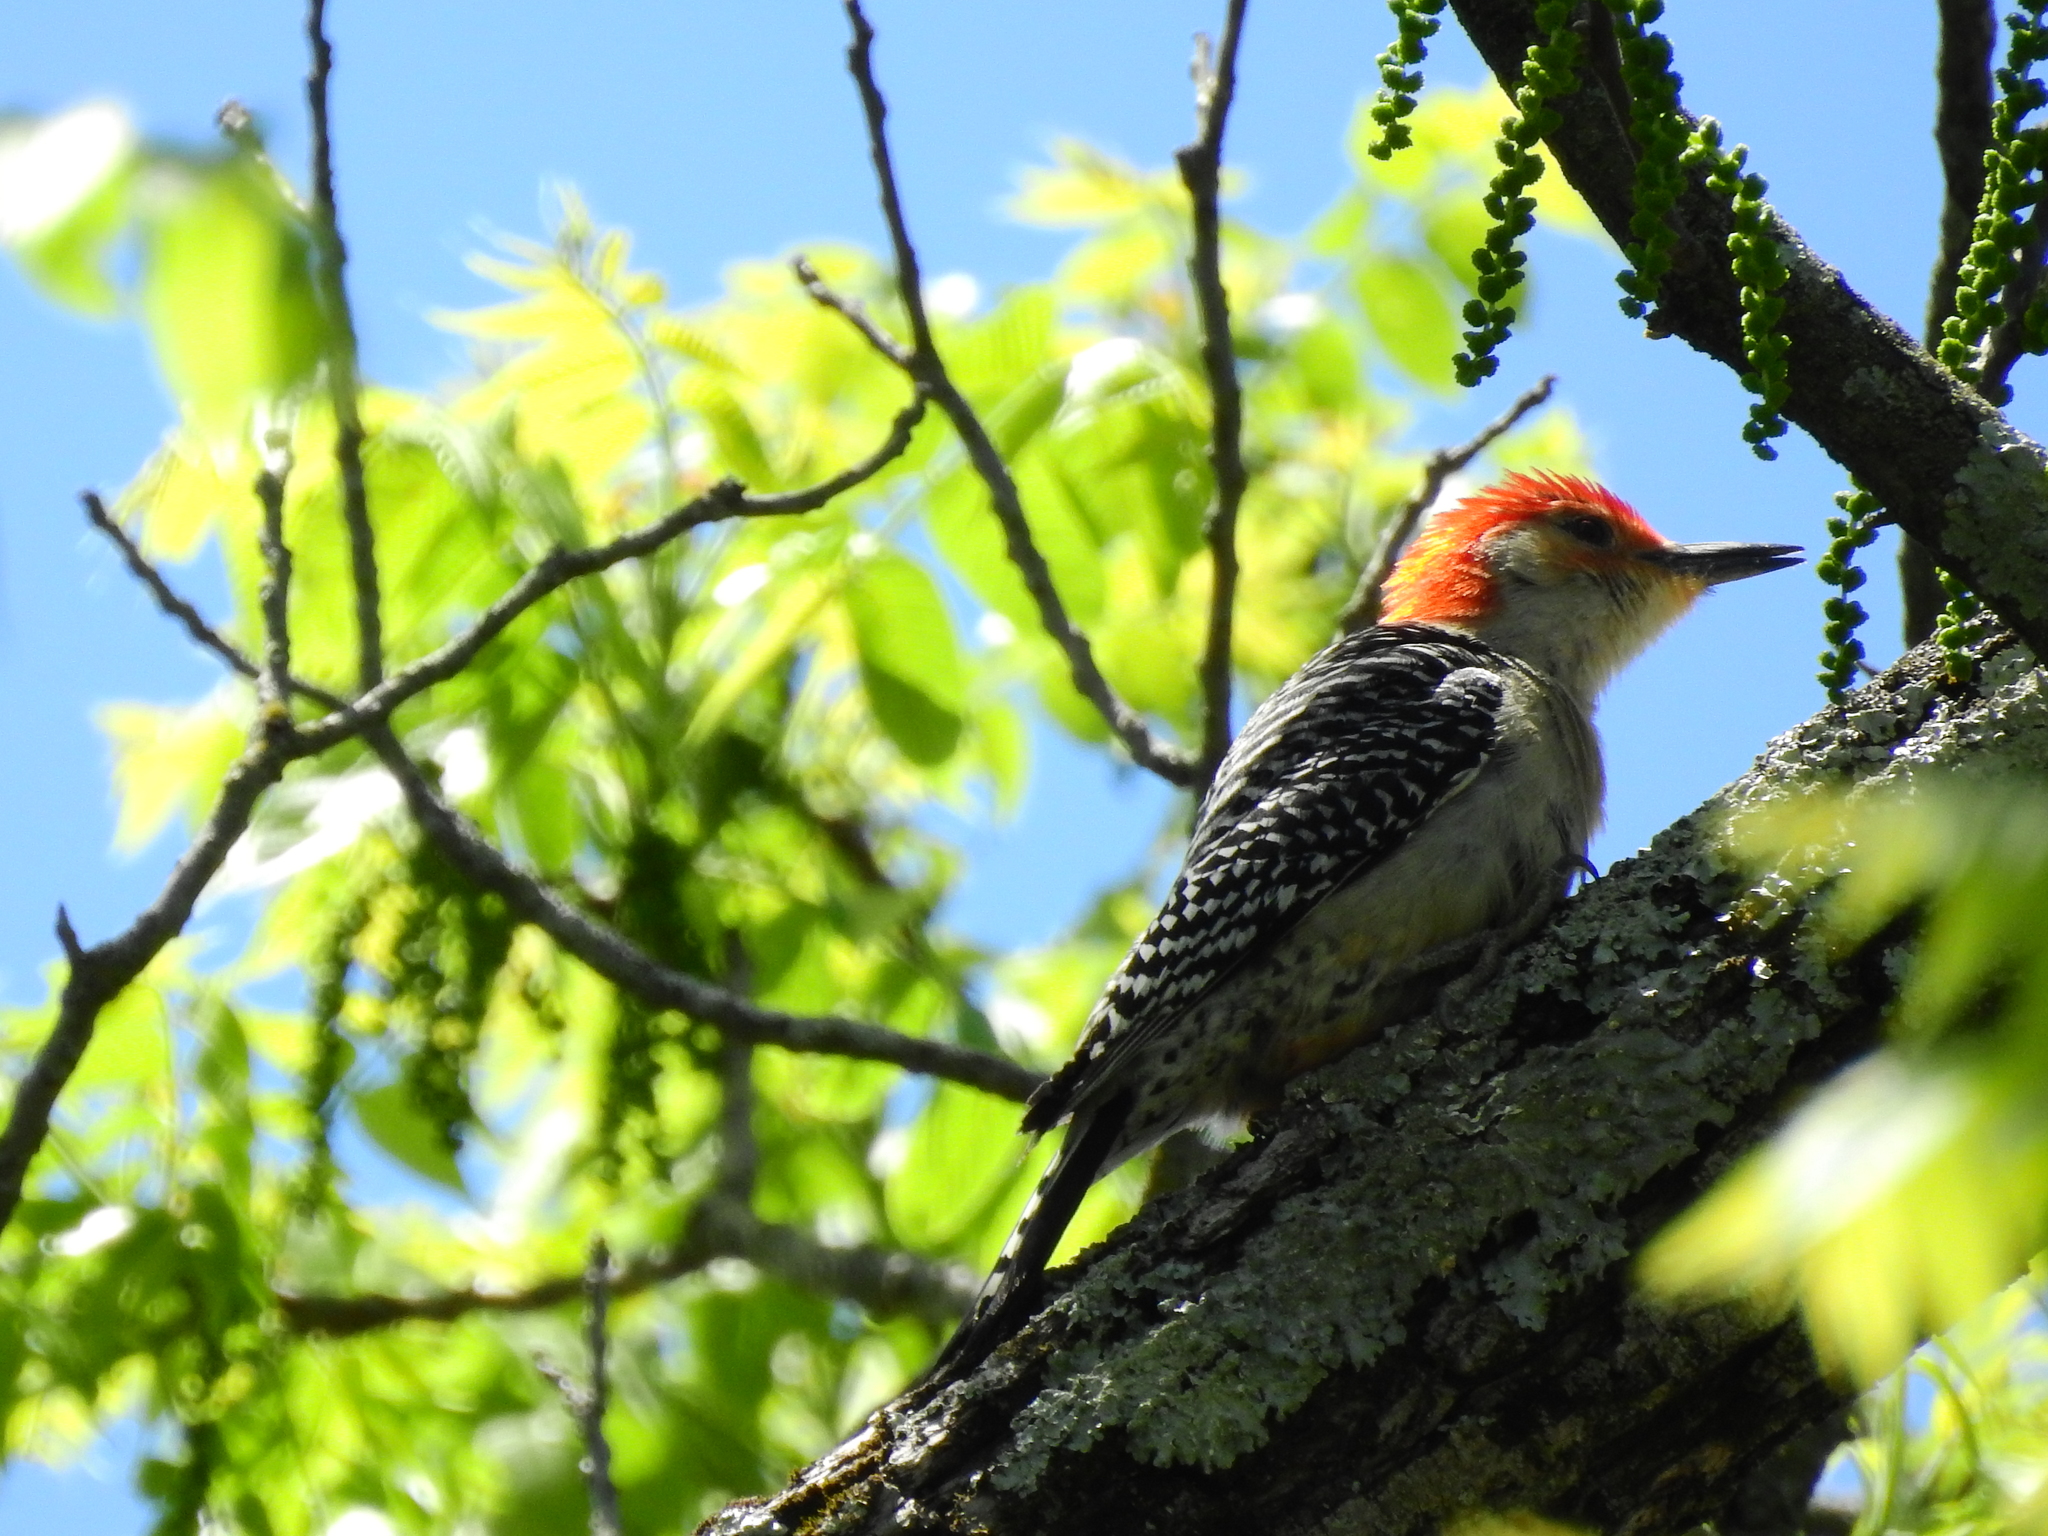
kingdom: Animalia
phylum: Chordata
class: Aves
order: Piciformes
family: Picidae
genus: Melanerpes
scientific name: Melanerpes carolinus
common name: Red-bellied woodpecker
